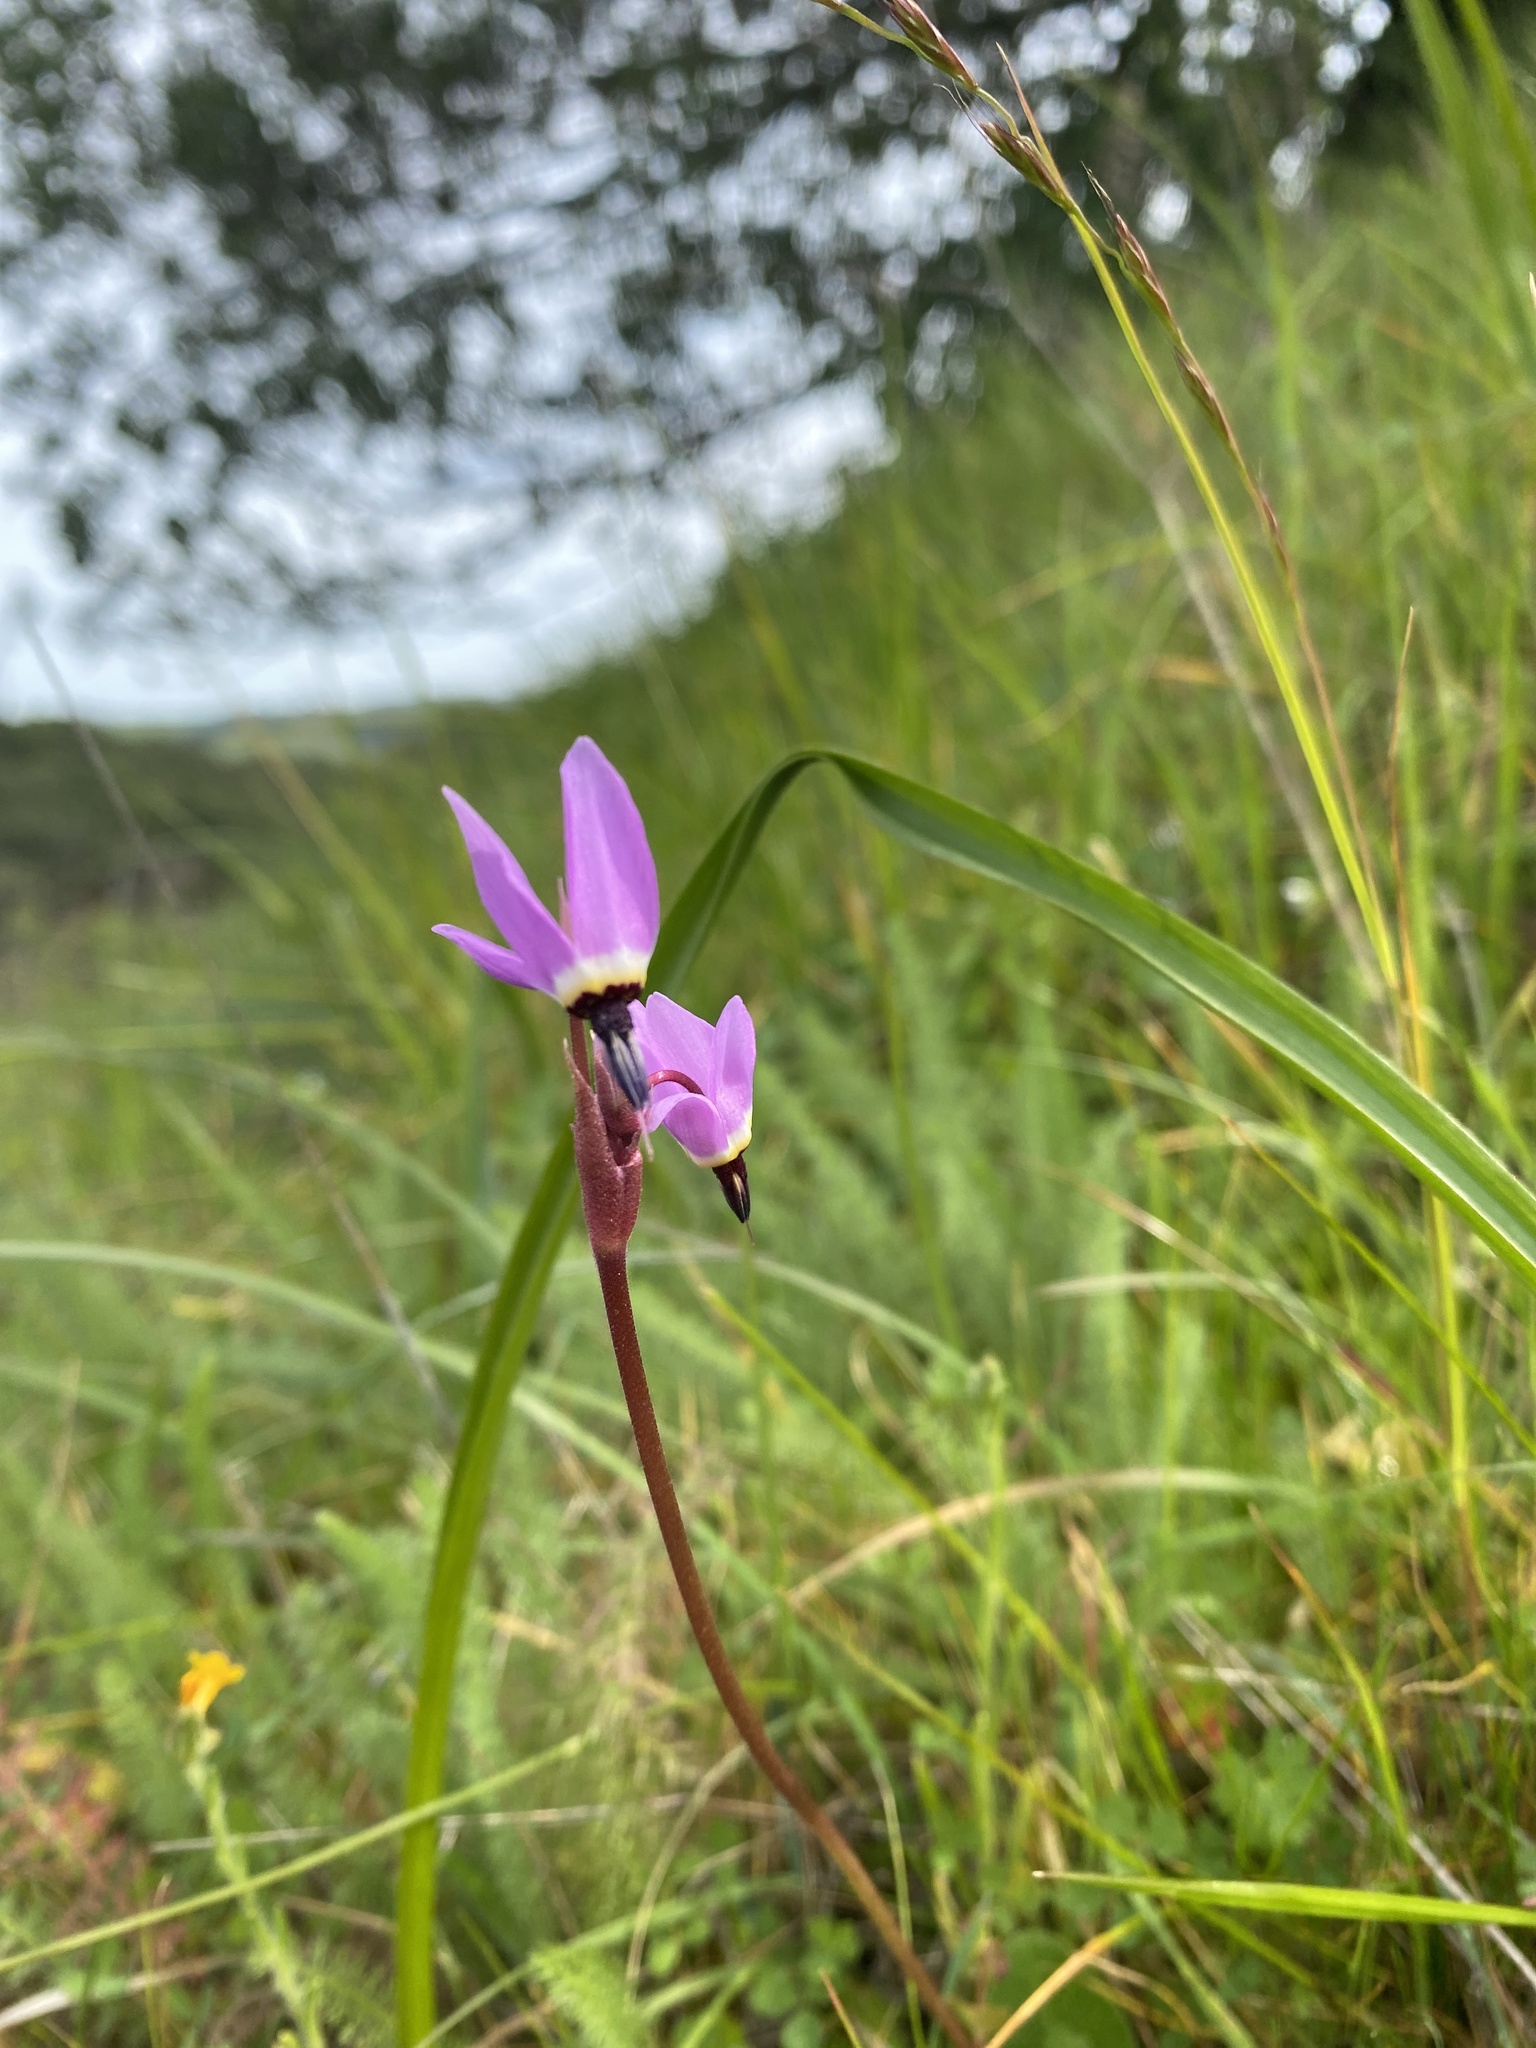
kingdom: Plantae
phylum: Tracheophyta
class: Magnoliopsida
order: Ericales
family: Primulaceae
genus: Dodecatheon
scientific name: Dodecatheon hendersonii
